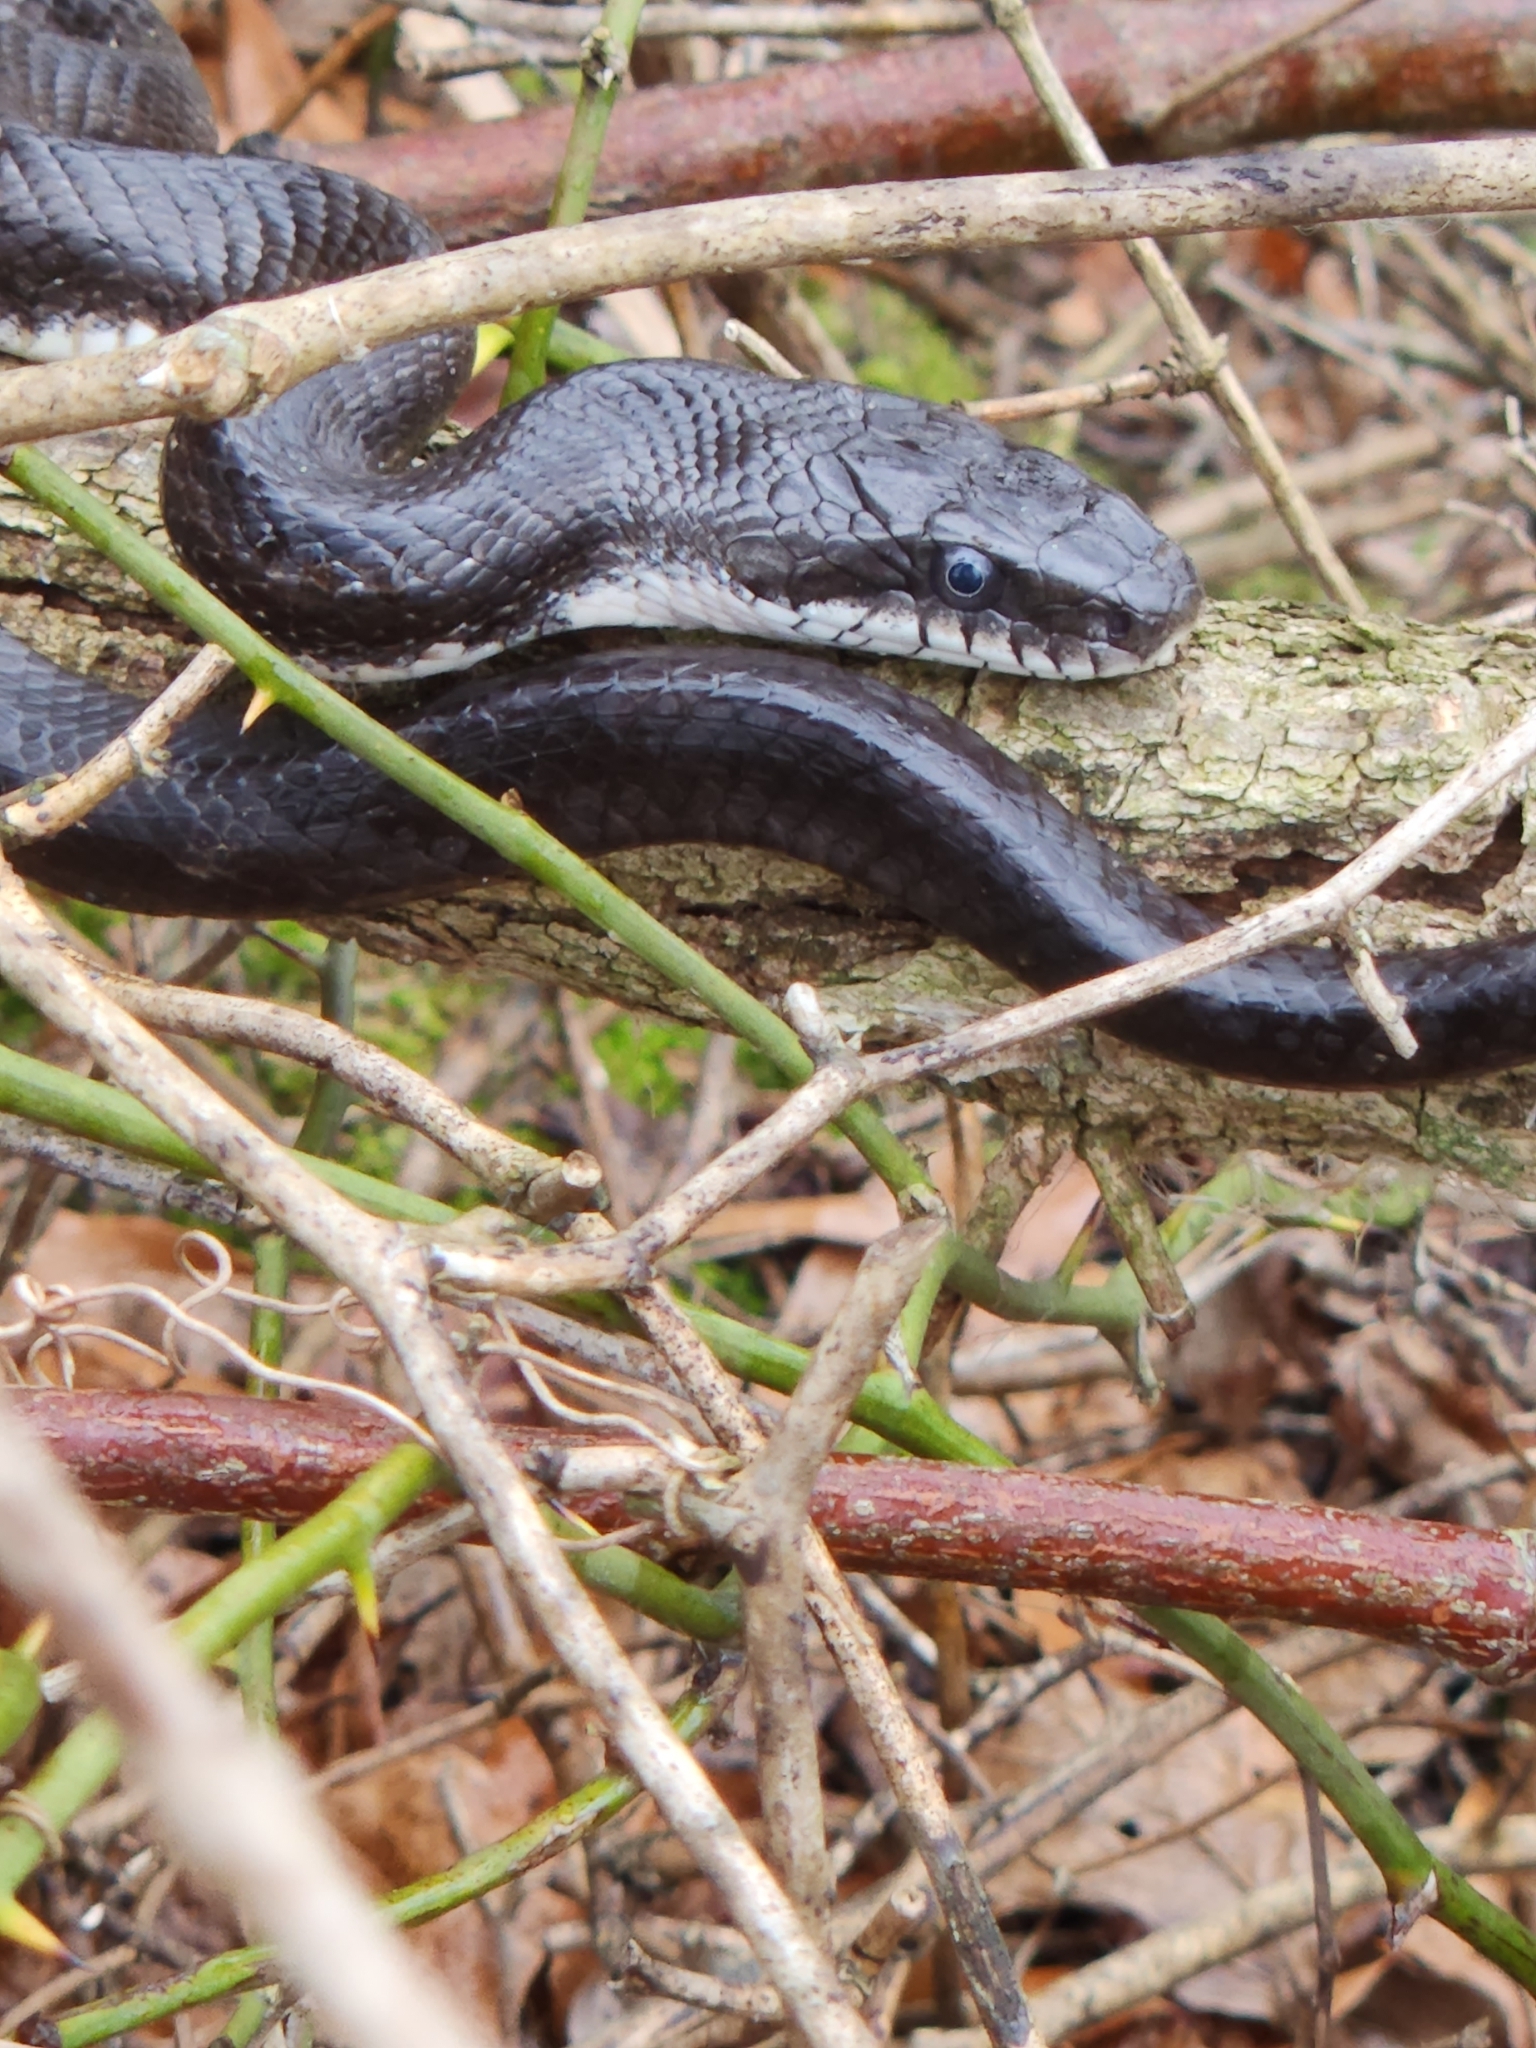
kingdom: Animalia
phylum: Chordata
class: Squamata
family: Colubridae
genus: Pantherophis
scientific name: Pantherophis alleghaniensis
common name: Eastern rat snake
